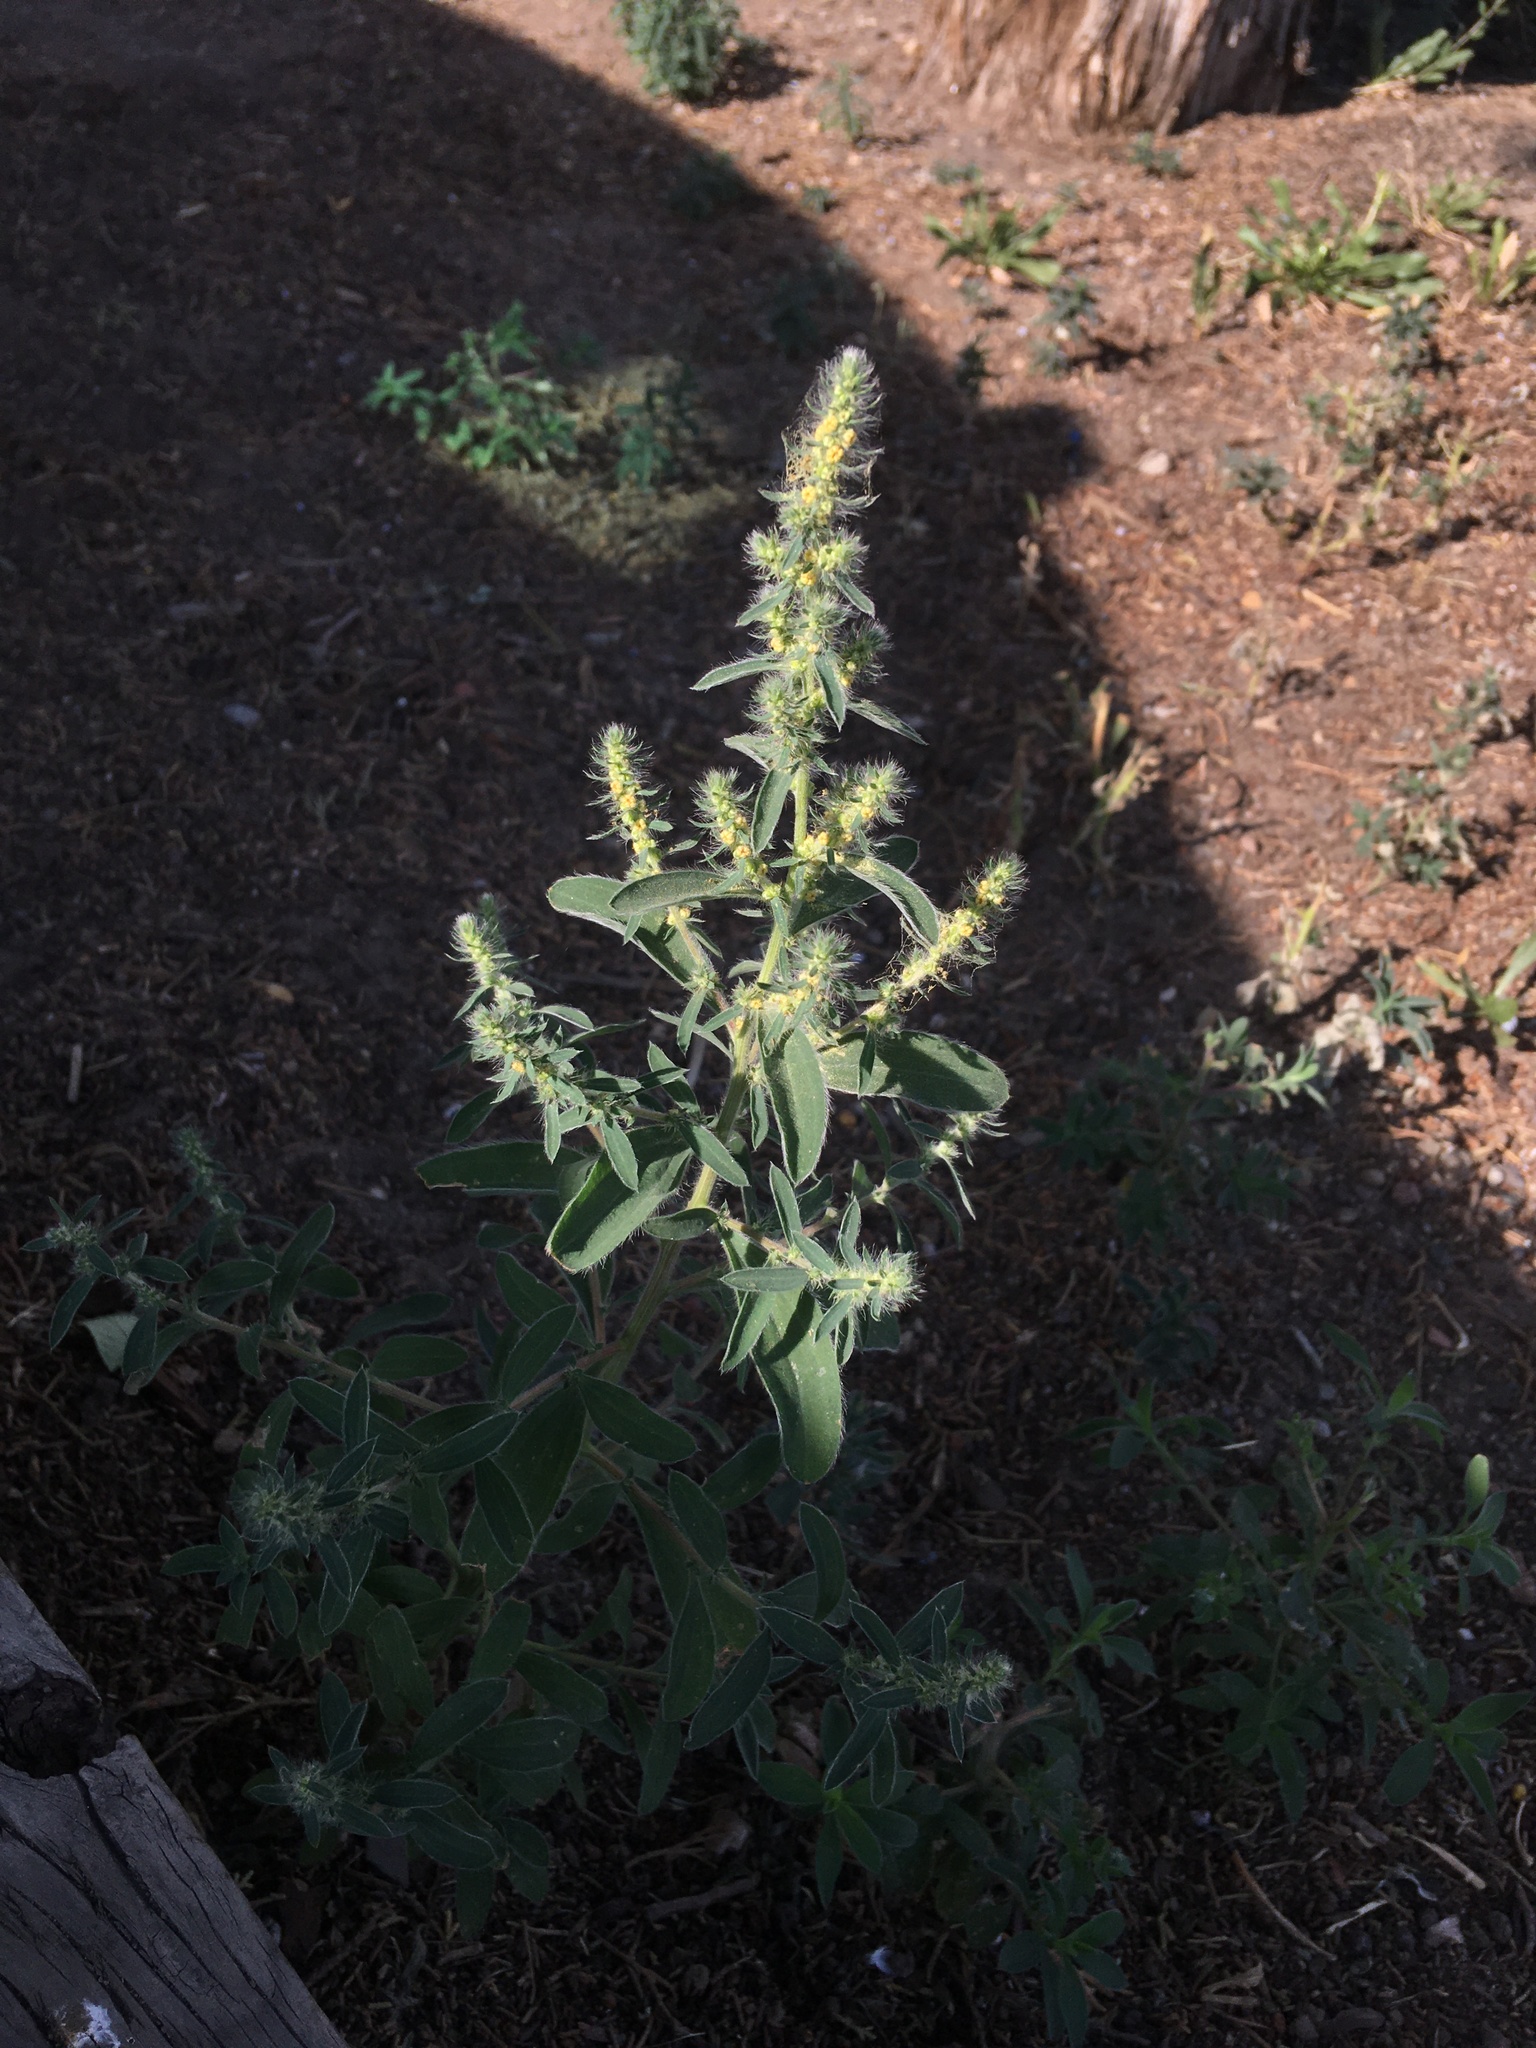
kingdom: Plantae
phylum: Tracheophyta
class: Magnoliopsida
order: Caryophyllales
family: Amaranthaceae
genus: Bassia
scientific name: Bassia scoparia
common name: Belvedere
